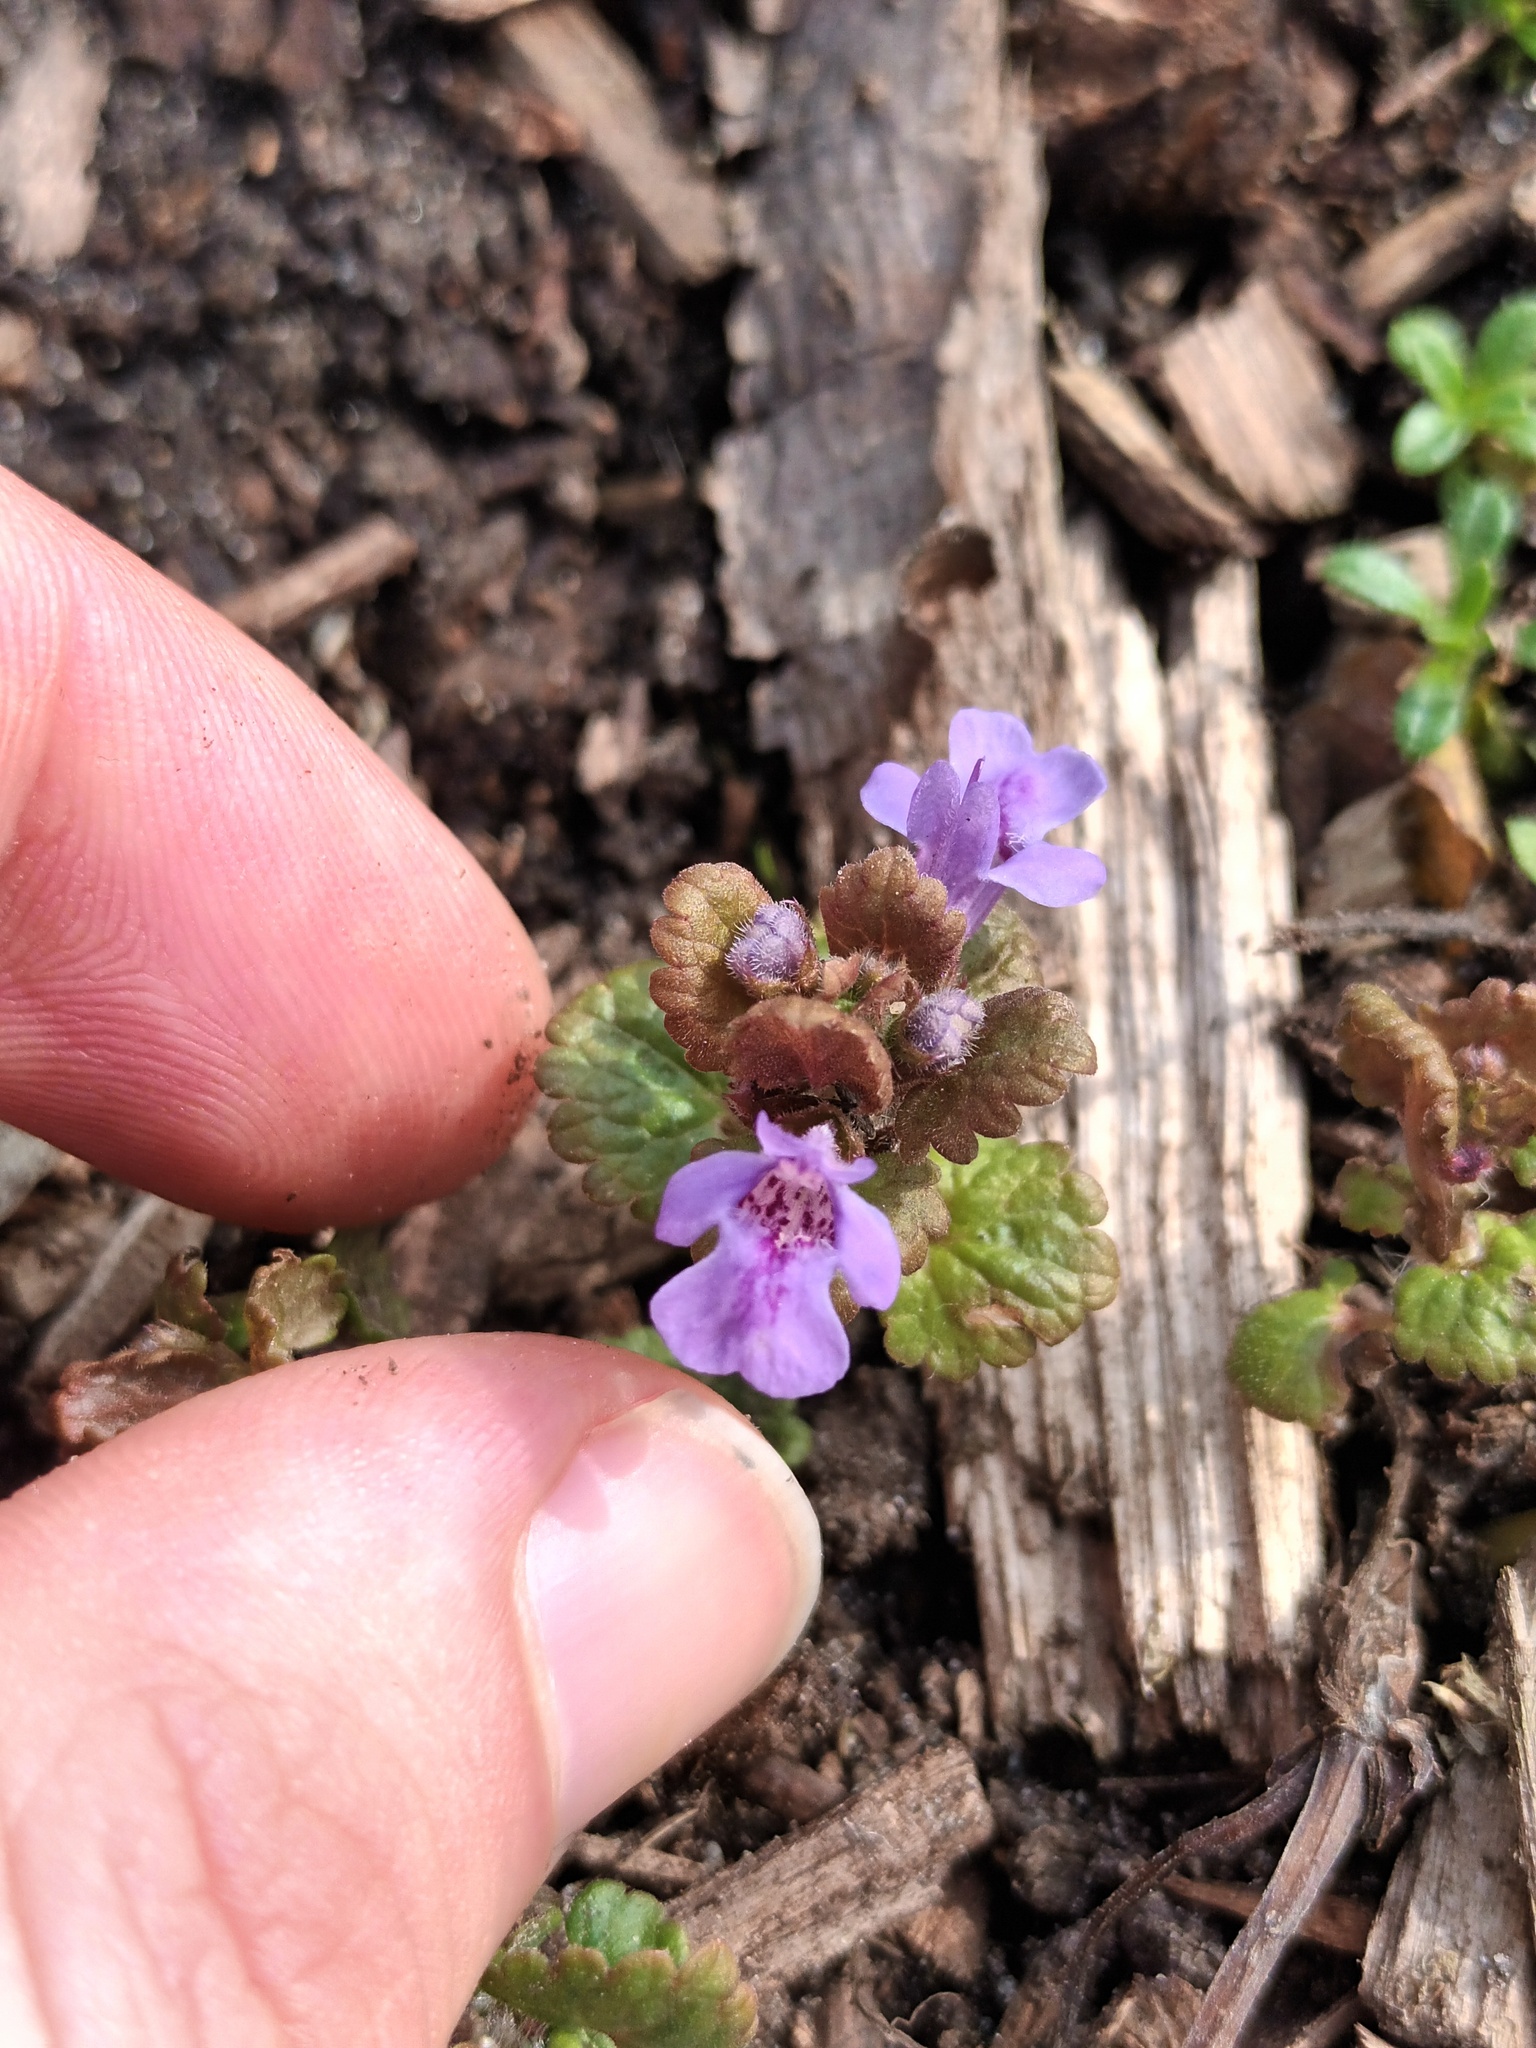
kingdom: Plantae
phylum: Tracheophyta
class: Magnoliopsida
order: Lamiales
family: Lamiaceae
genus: Glechoma
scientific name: Glechoma hederacea
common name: Ground ivy
